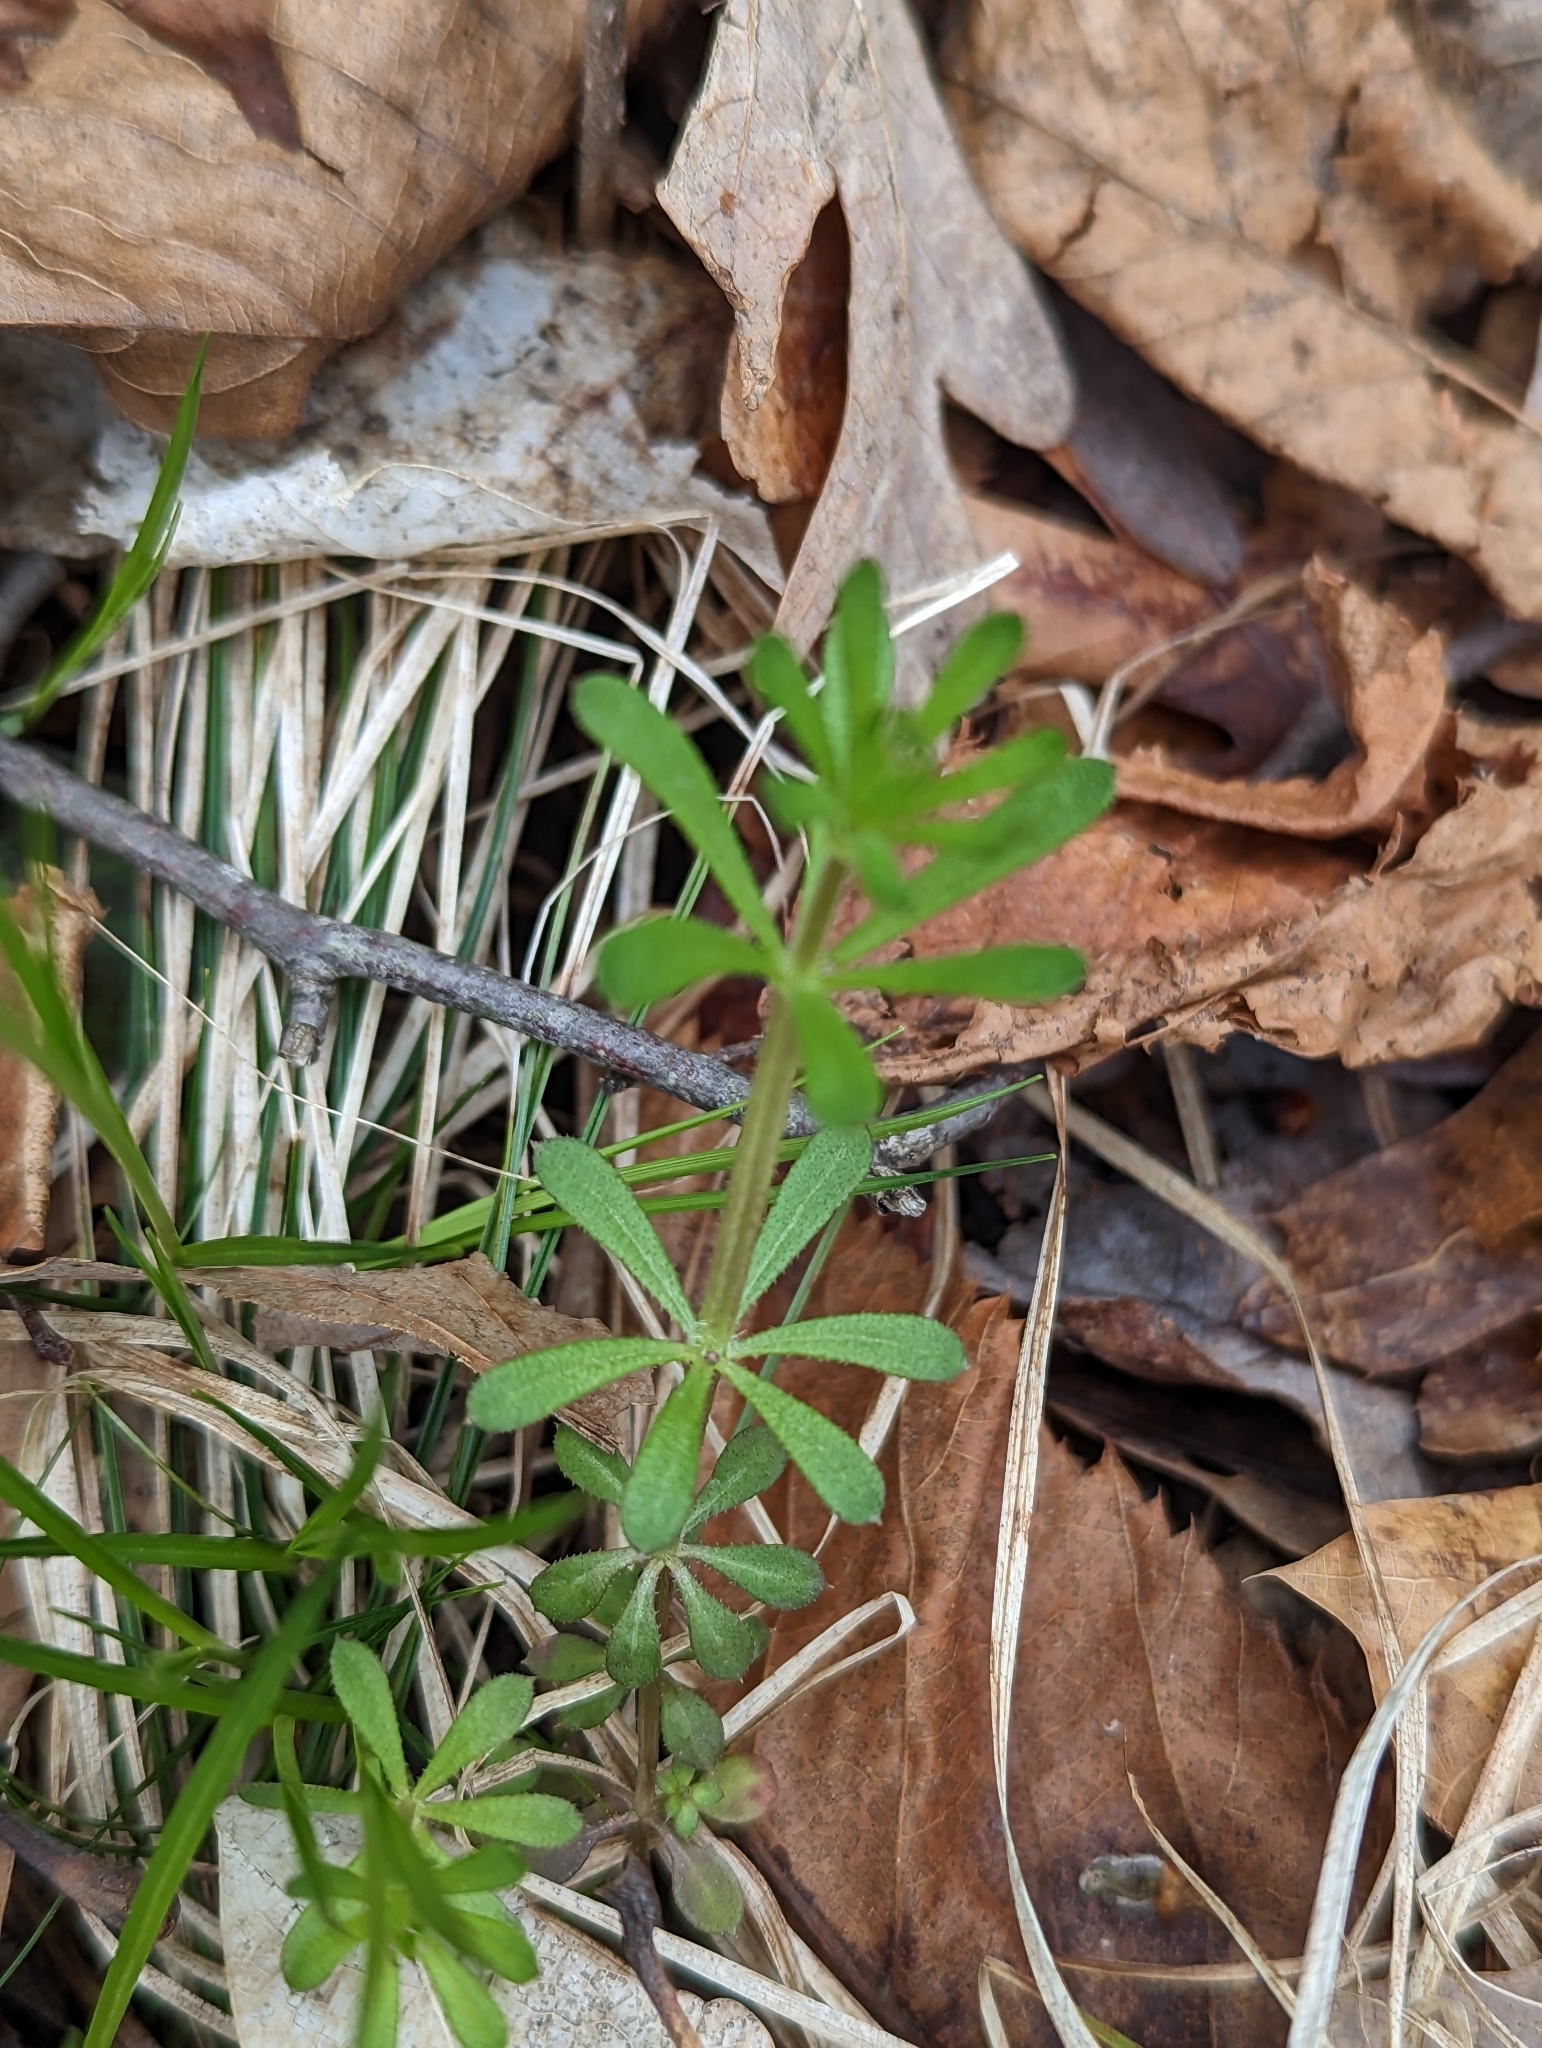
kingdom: Plantae
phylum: Tracheophyta
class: Magnoliopsida
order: Gentianales
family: Rubiaceae
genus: Galium
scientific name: Galium aparine
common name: Cleavers
